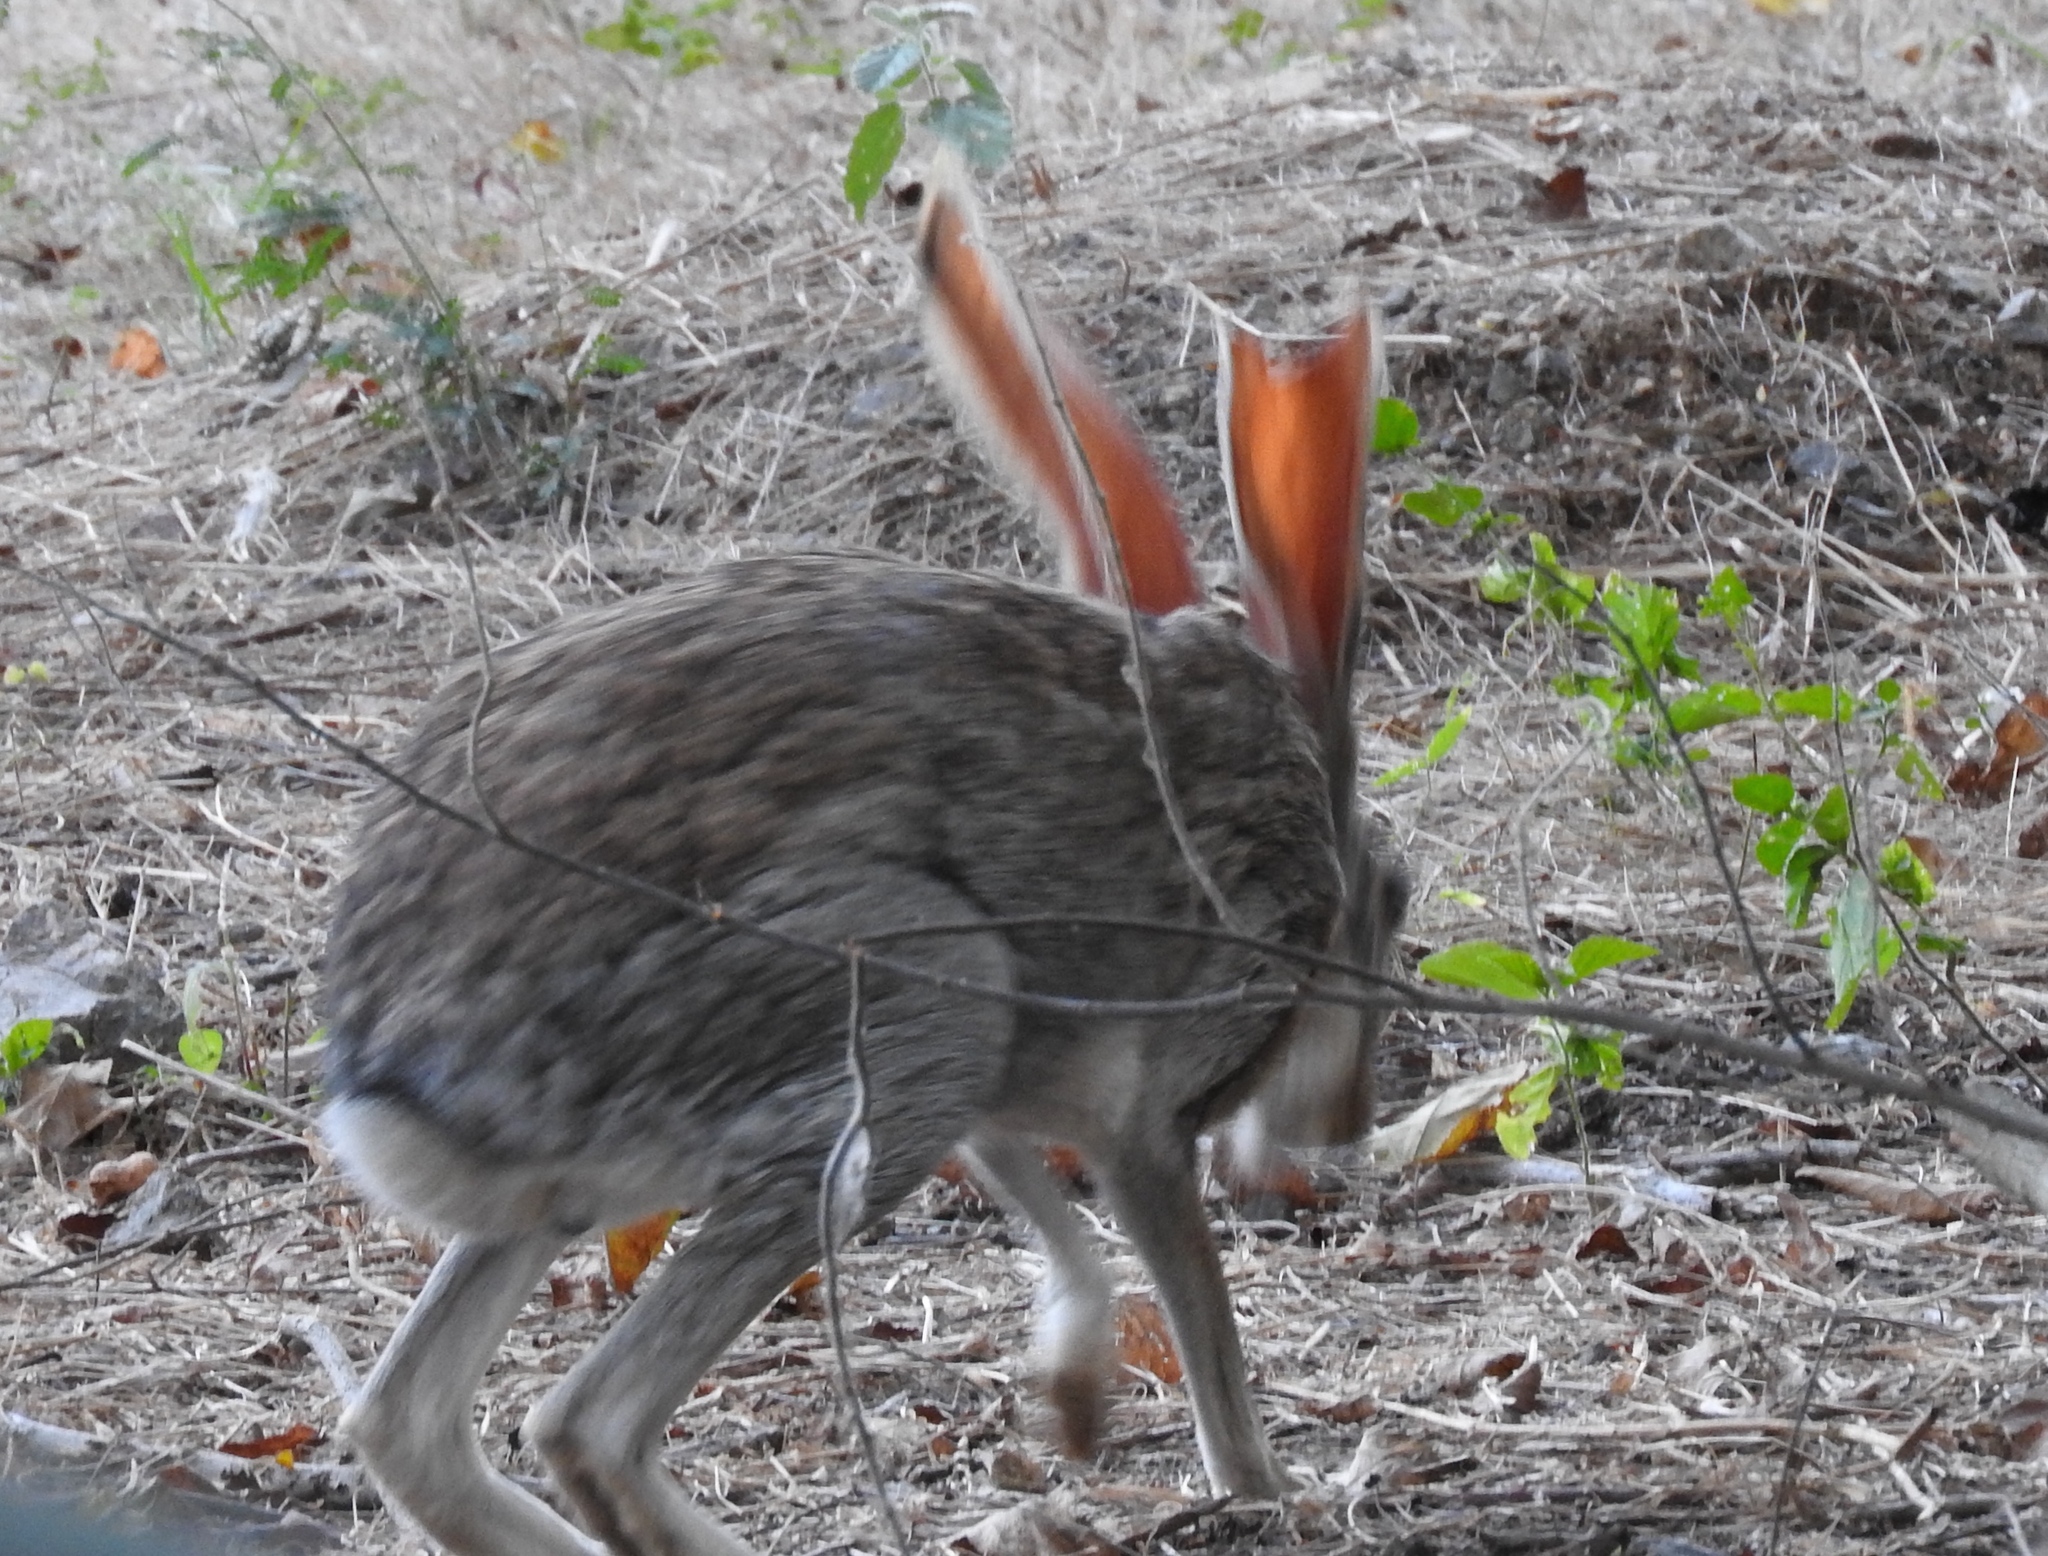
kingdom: Animalia
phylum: Chordata
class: Mammalia
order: Lagomorpha
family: Leporidae
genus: Lepus
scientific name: Lepus alleni
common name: Antelope jackrabbit
